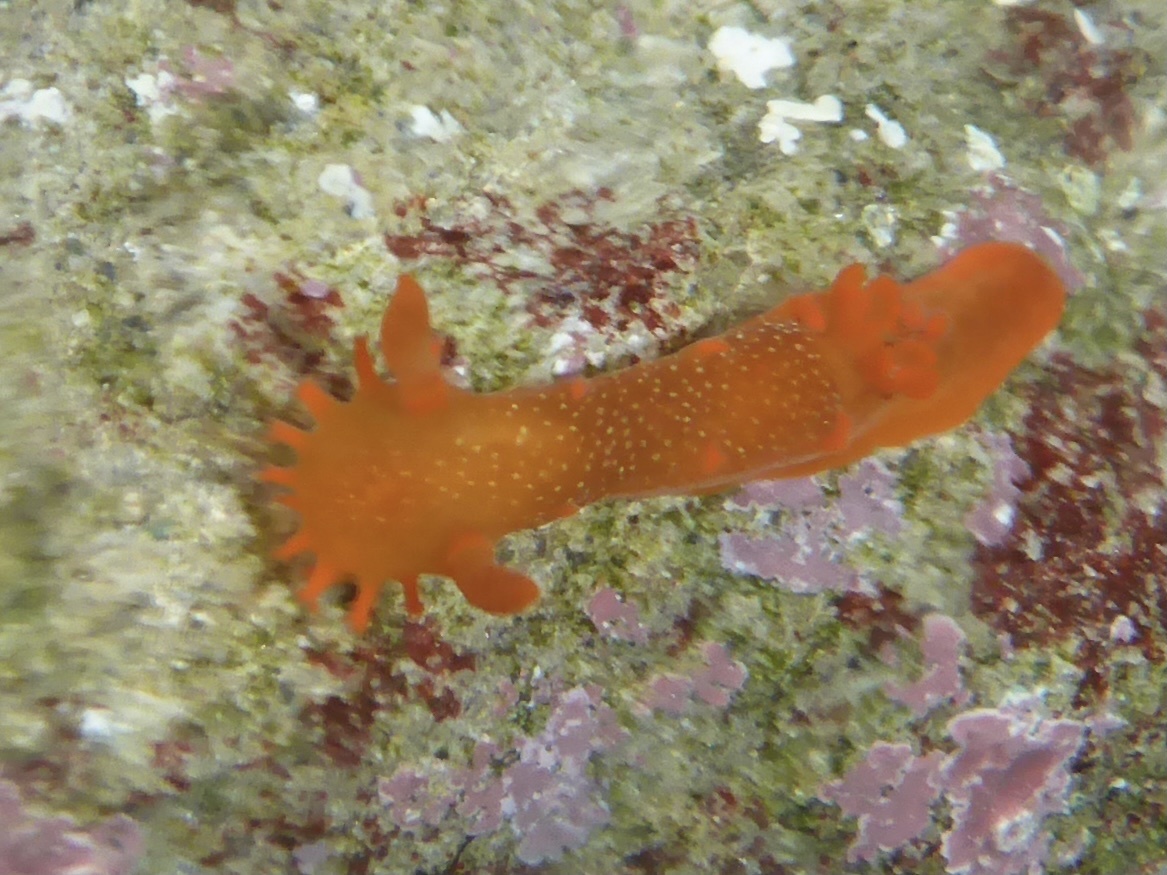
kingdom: Animalia
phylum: Mollusca
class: Gastropoda
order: Nudibranchia
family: Polyceridae
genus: Triopha
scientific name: Triopha maculata
